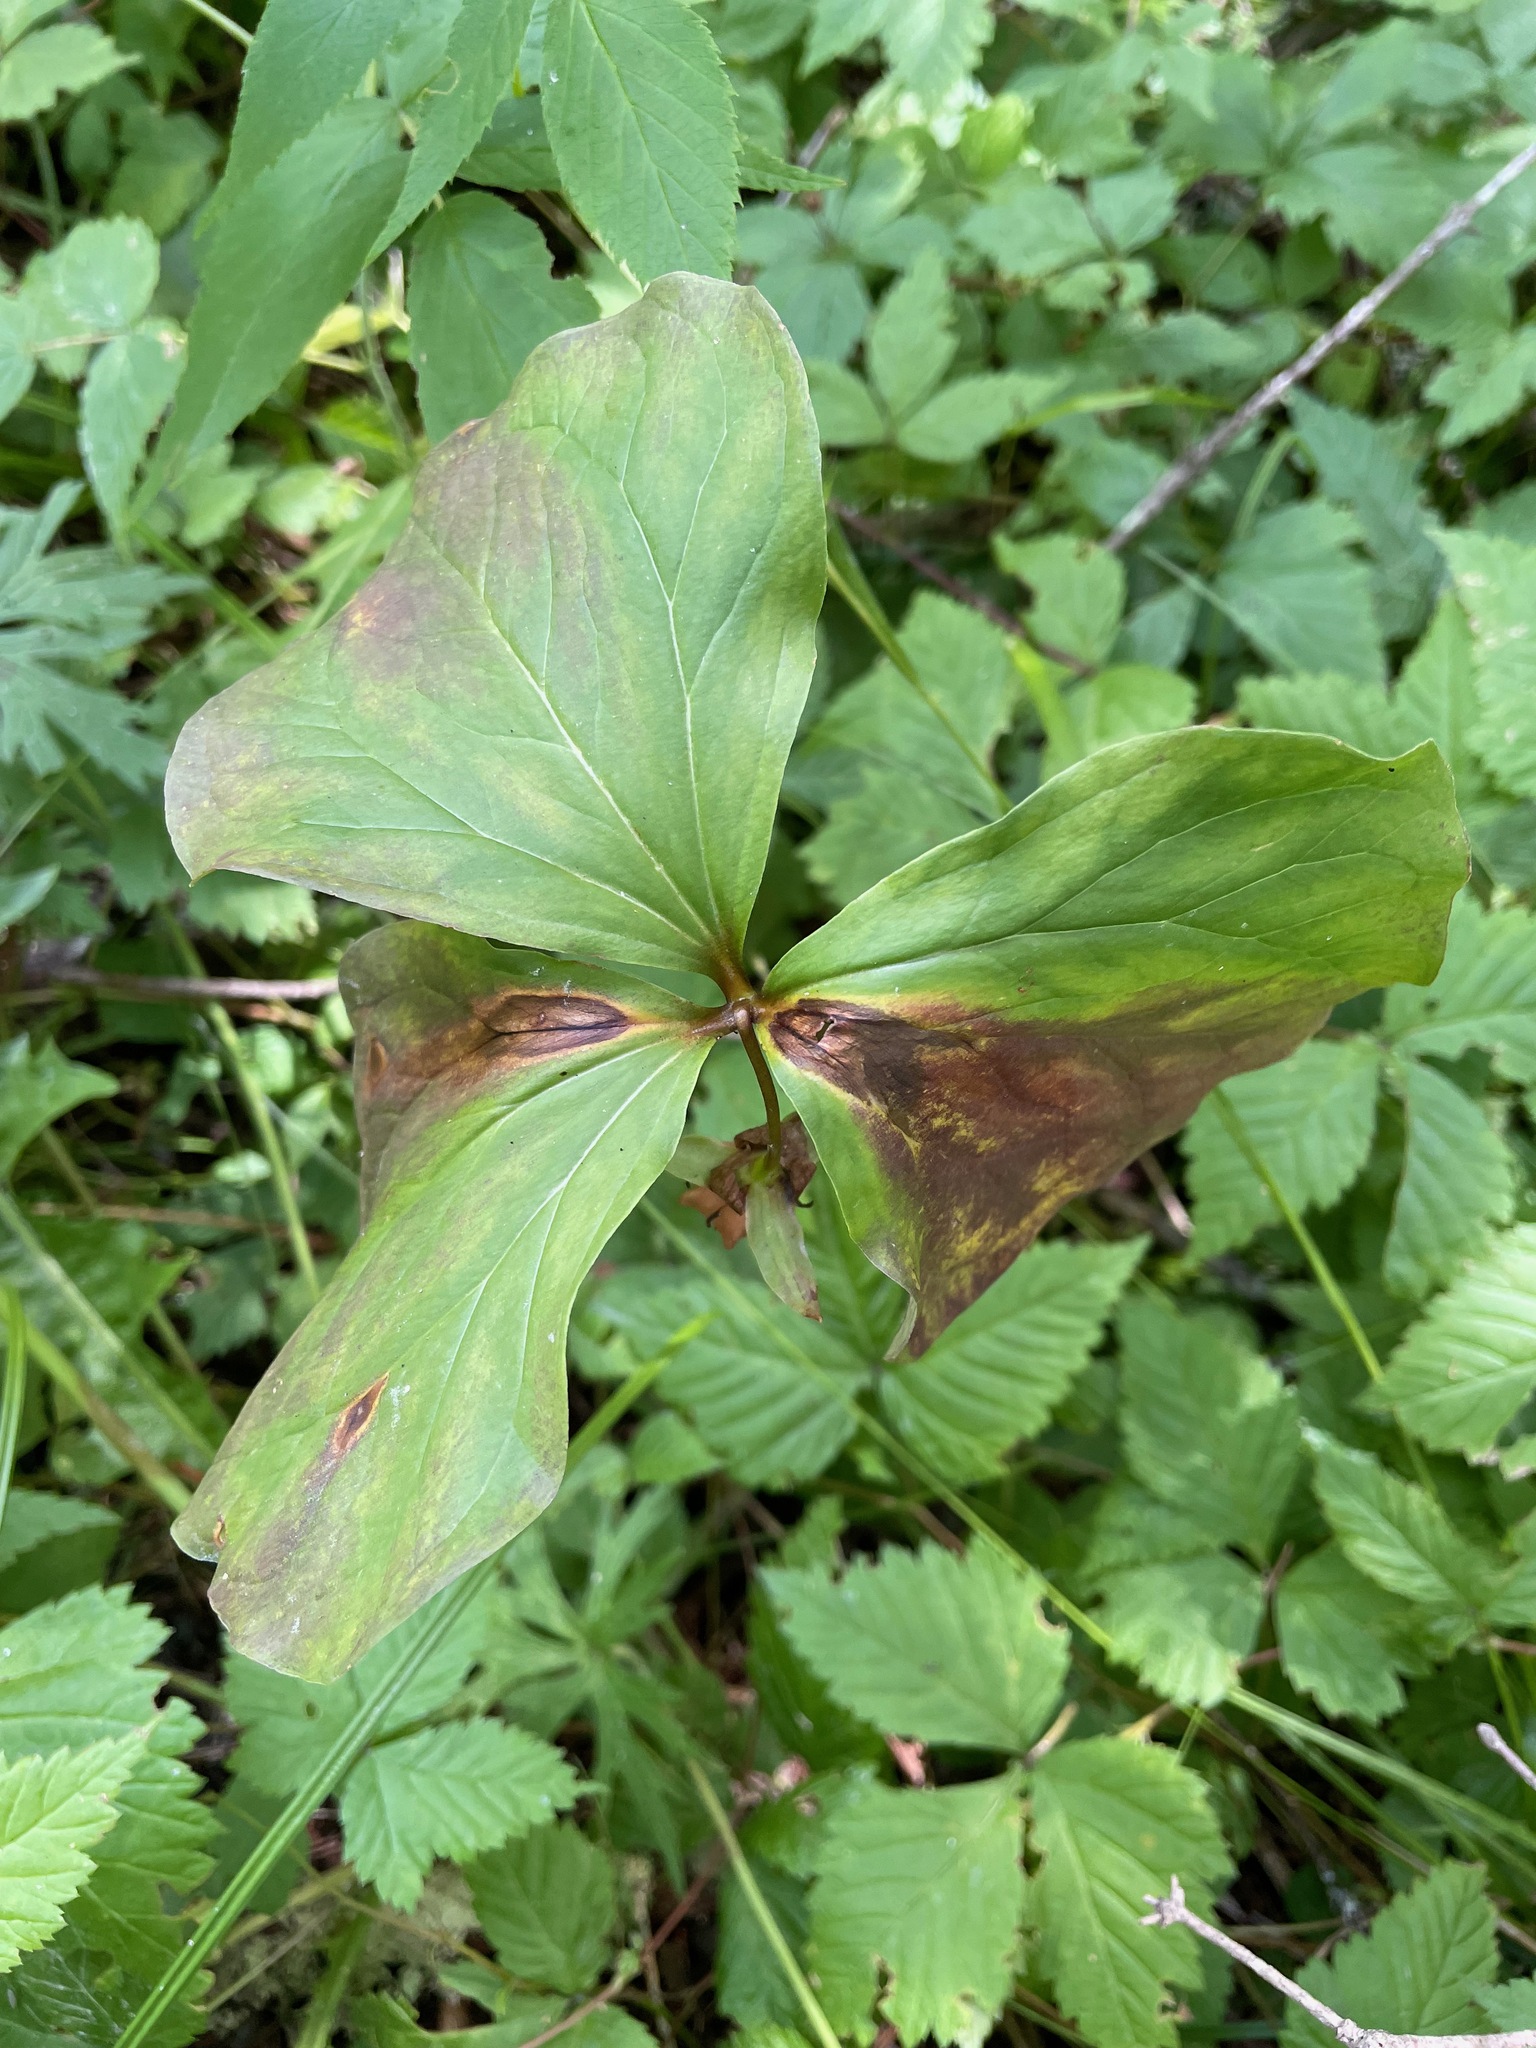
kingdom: Plantae
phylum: Tracheophyta
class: Liliopsida
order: Liliales
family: Melanthiaceae
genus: Trillium
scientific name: Trillium cernuum
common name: Nodding trillium
